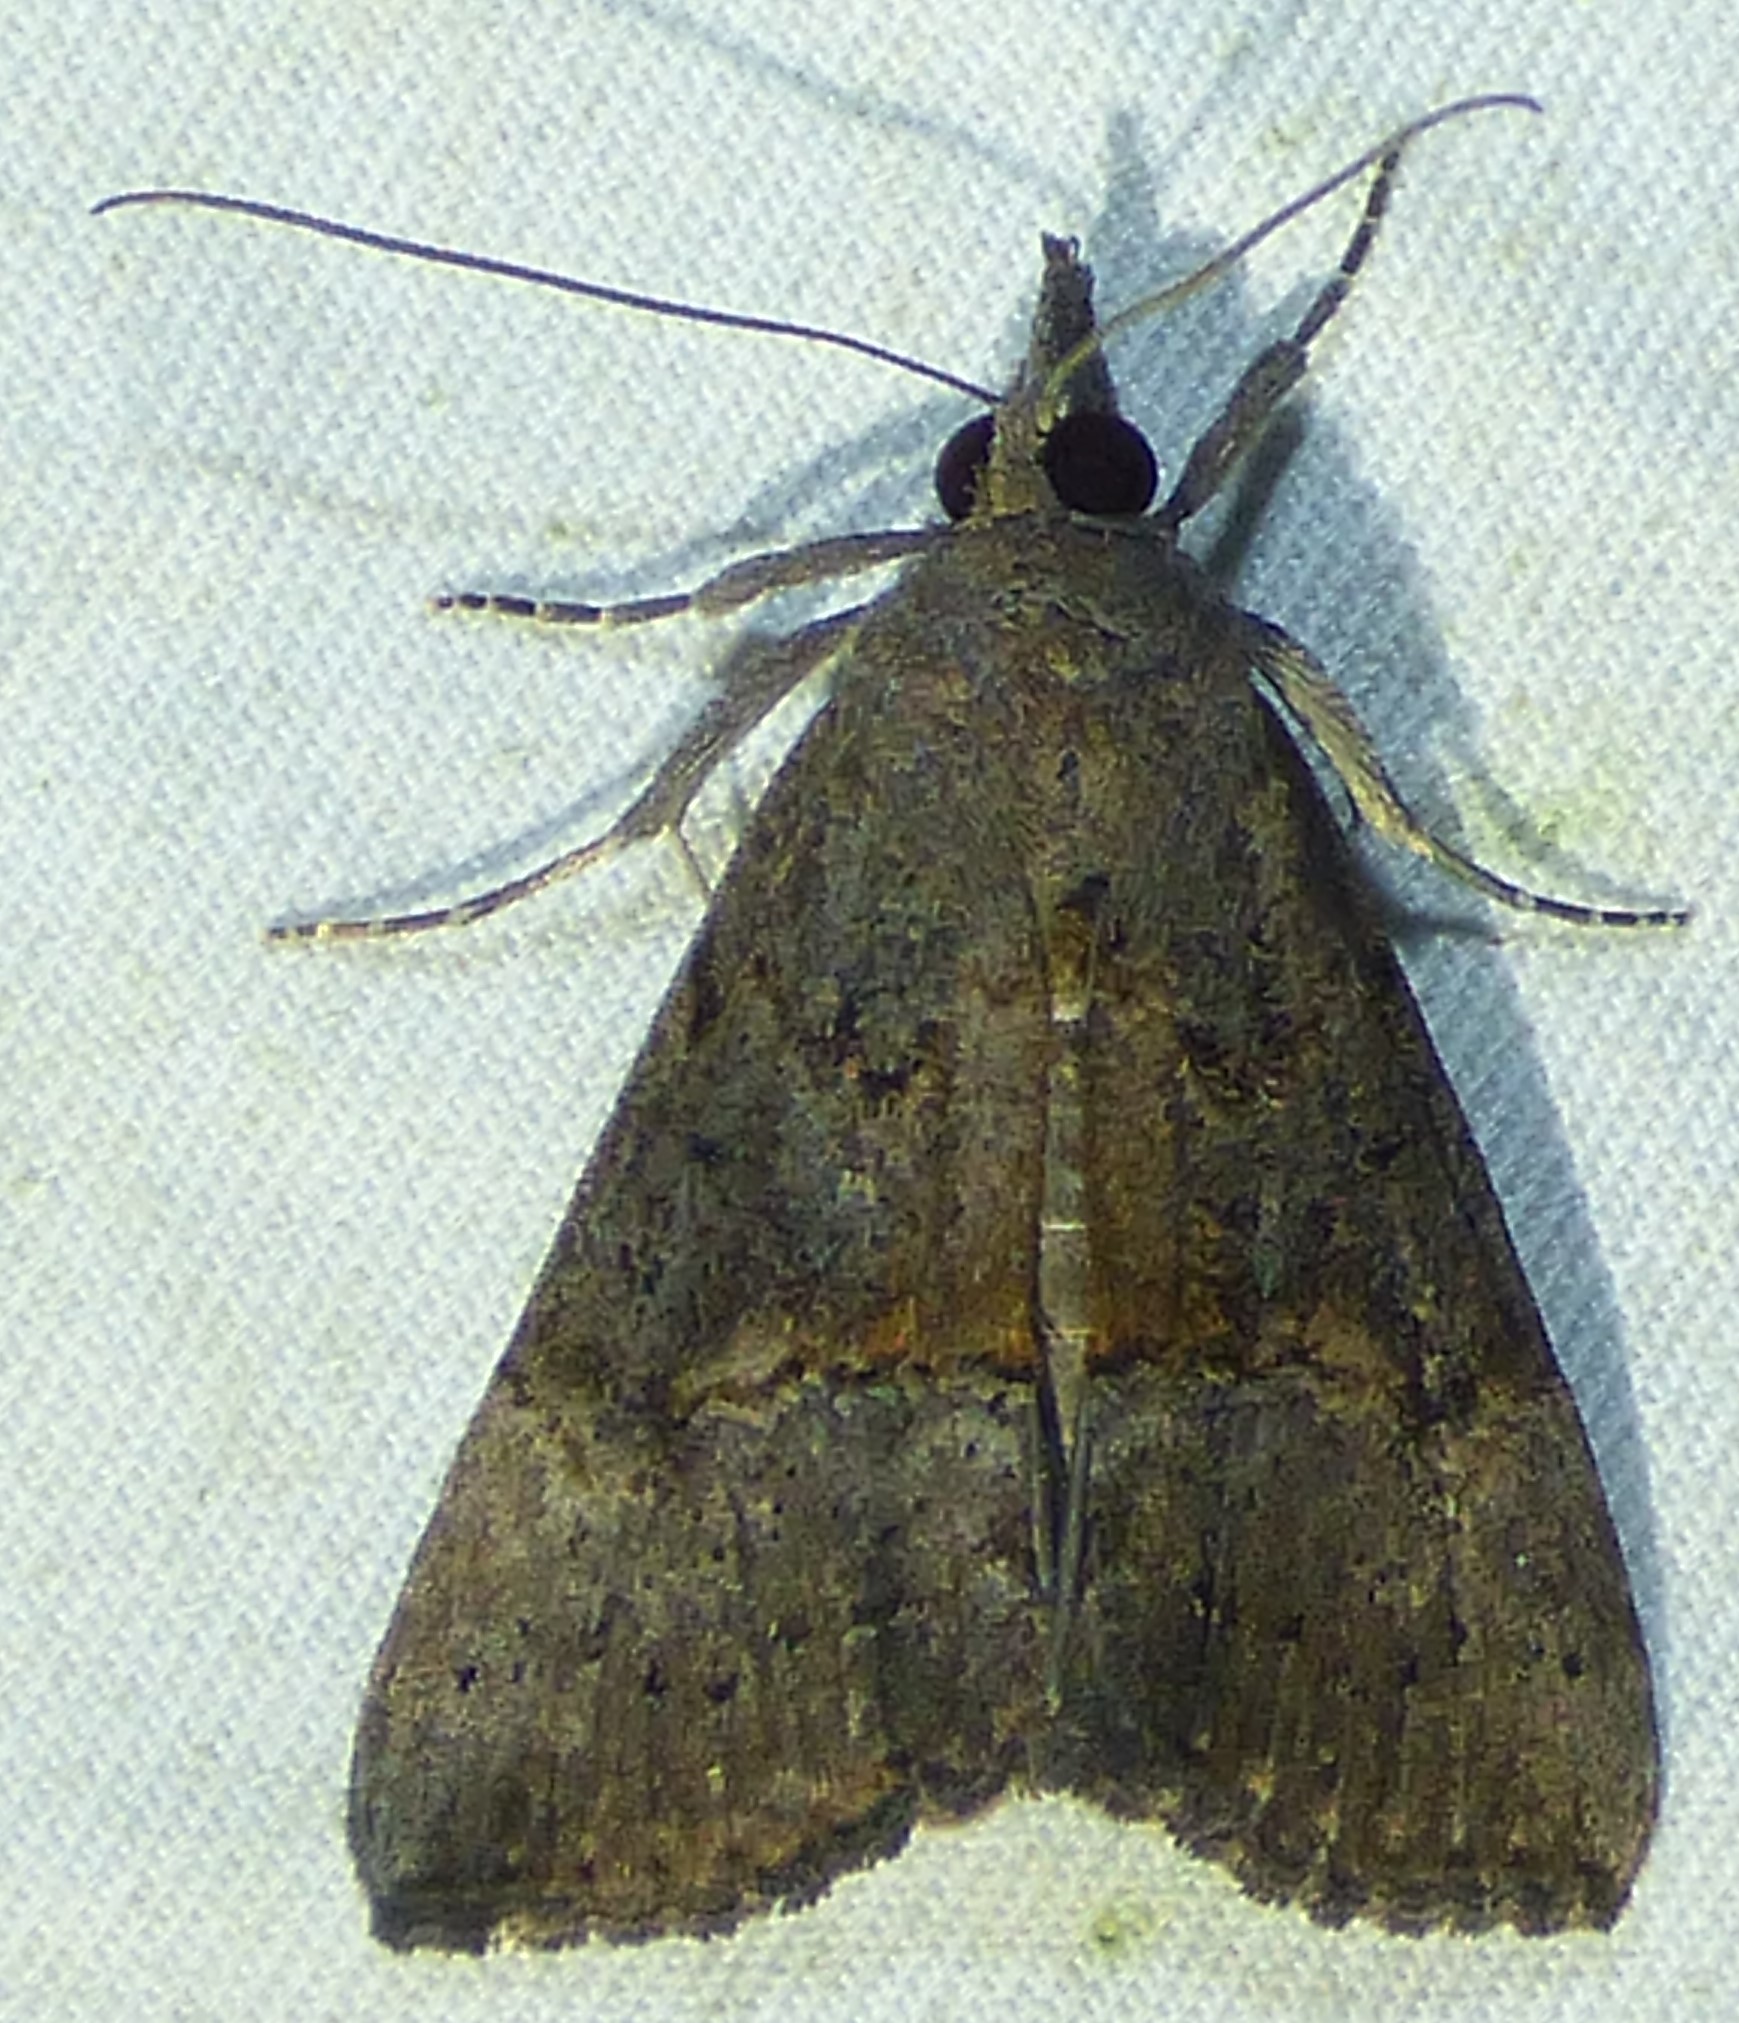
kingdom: Animalia
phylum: Arthropoda
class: Insecta
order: Lepidoptera
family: Erebidae
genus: Hypena
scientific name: Hypena scabra
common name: Green cloverworm
